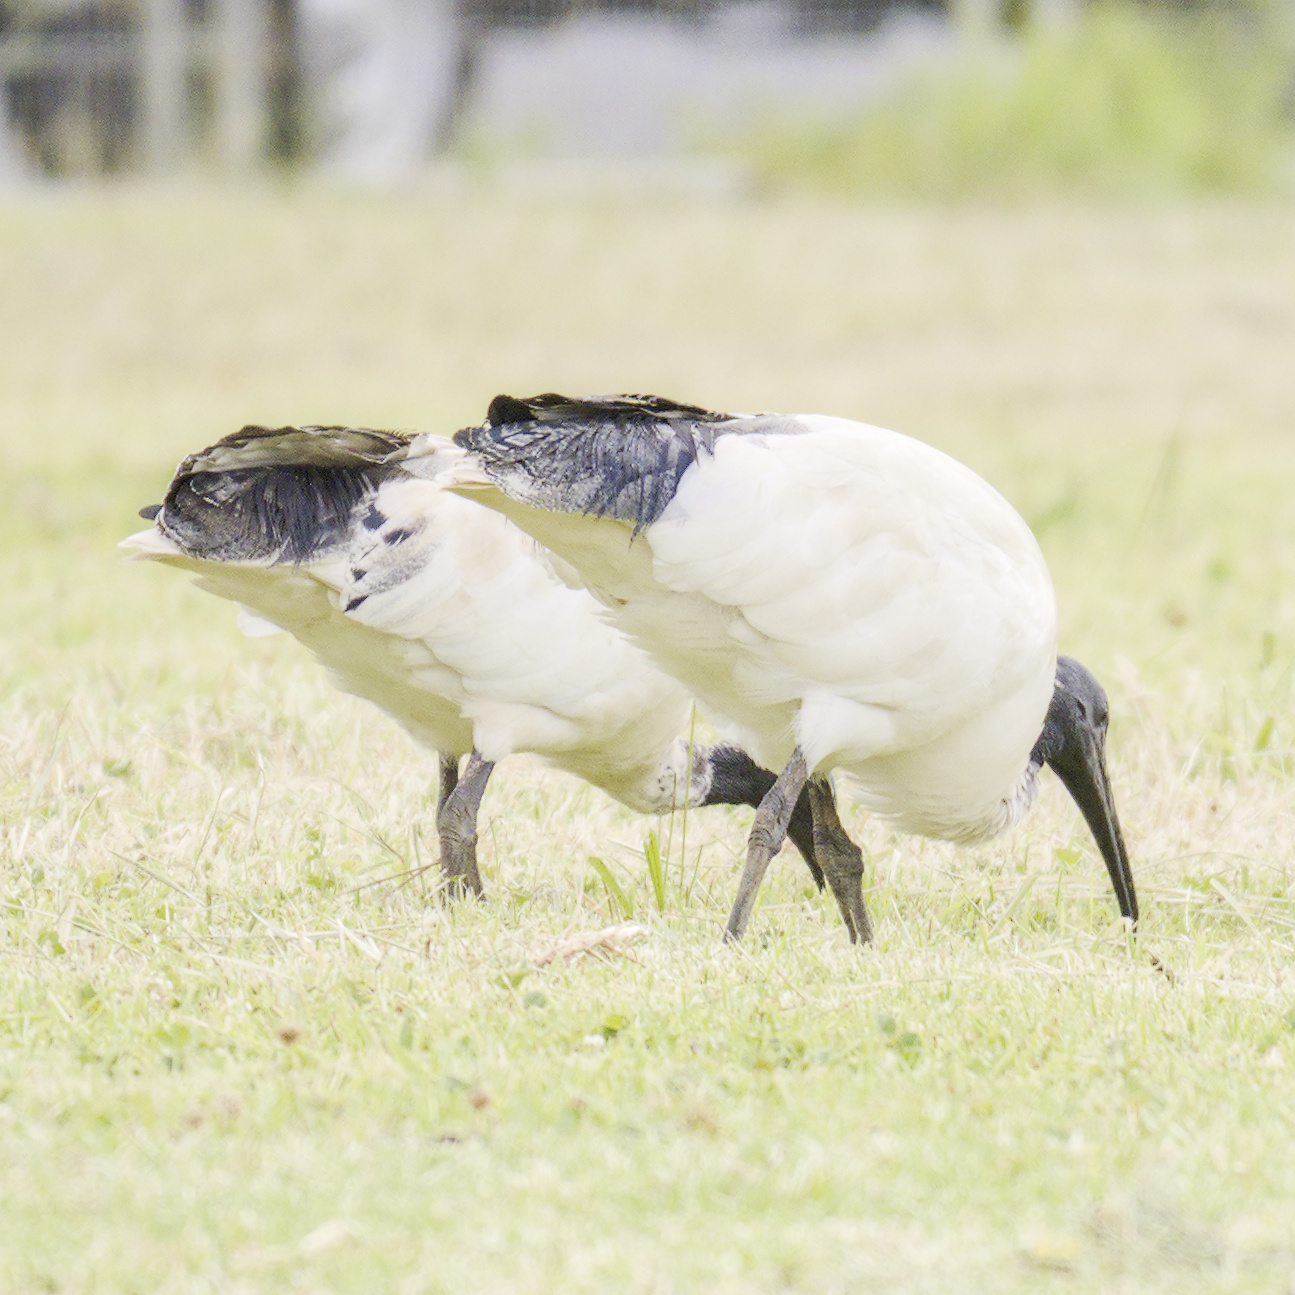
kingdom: Animalia
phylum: Chordata
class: Aves
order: Pelecaniformes
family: Threskiornithidae
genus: Threskiornis
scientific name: Threskiornis molucca
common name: Australian white ibis
